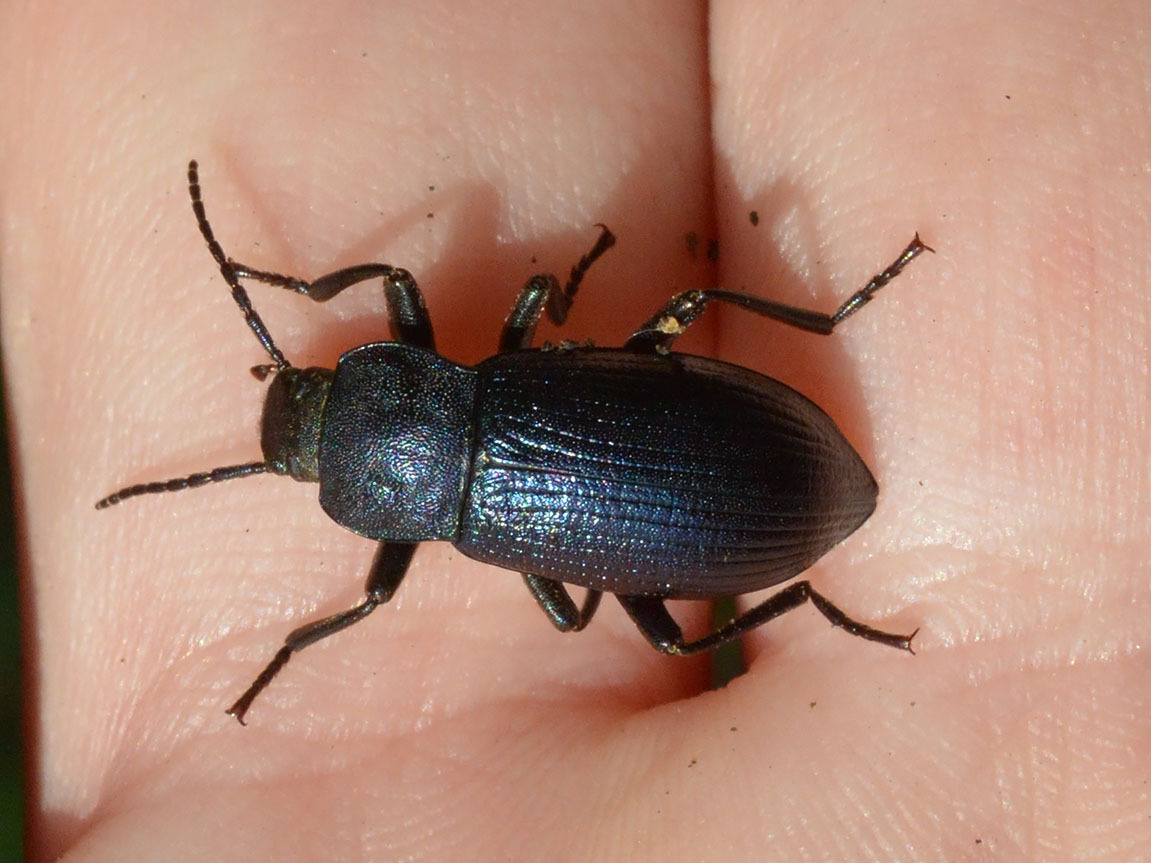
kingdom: Animalia
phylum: Arthropoda
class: Insecta
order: Coleoptera
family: Tenebrionidae
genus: Helops
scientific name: Helops caeruleus
